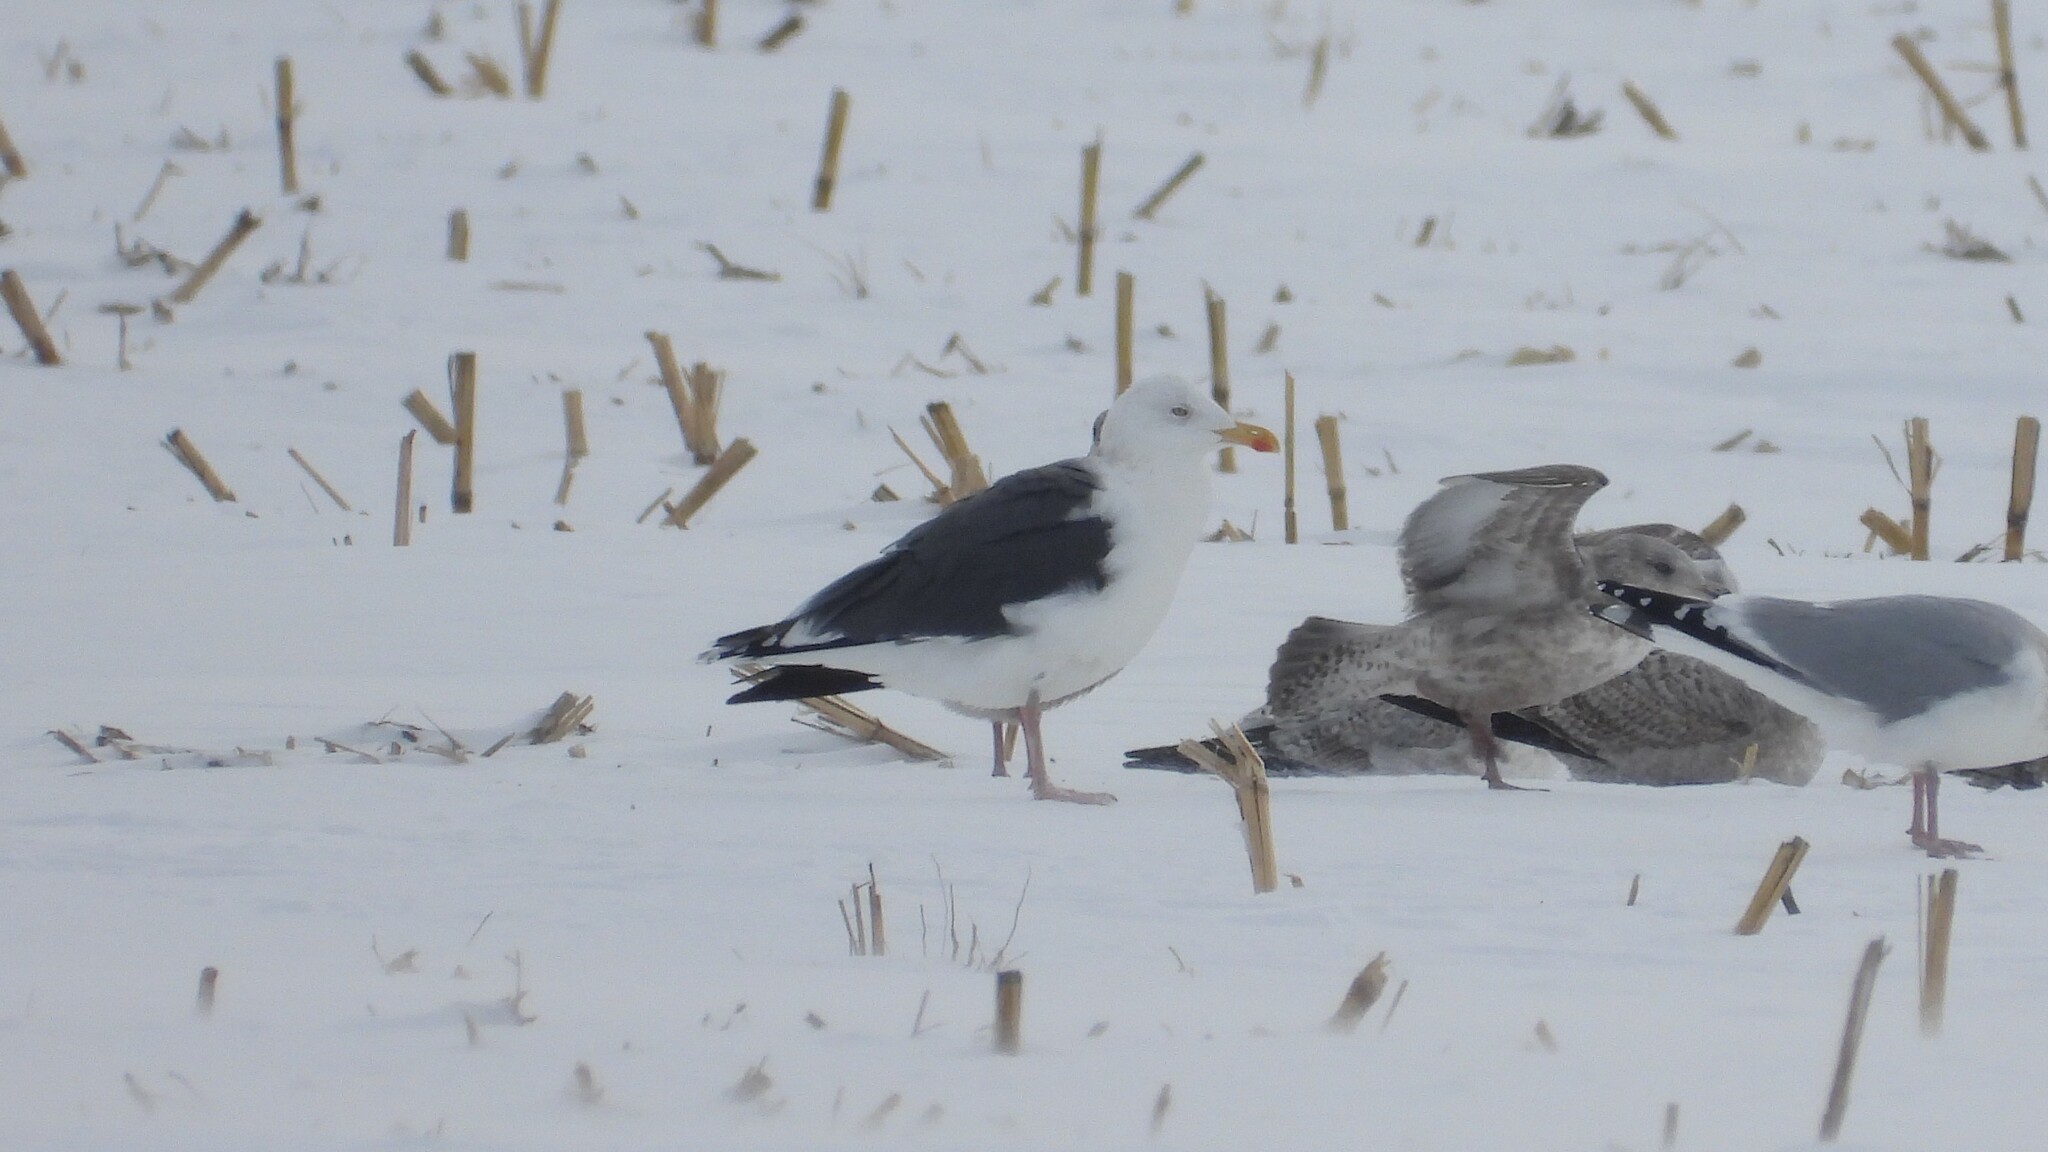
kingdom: Animalia
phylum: Chordata
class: Aves
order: Charadriiformes
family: Laridae
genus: Larus
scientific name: Larus marinus
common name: Great black-backed gull
